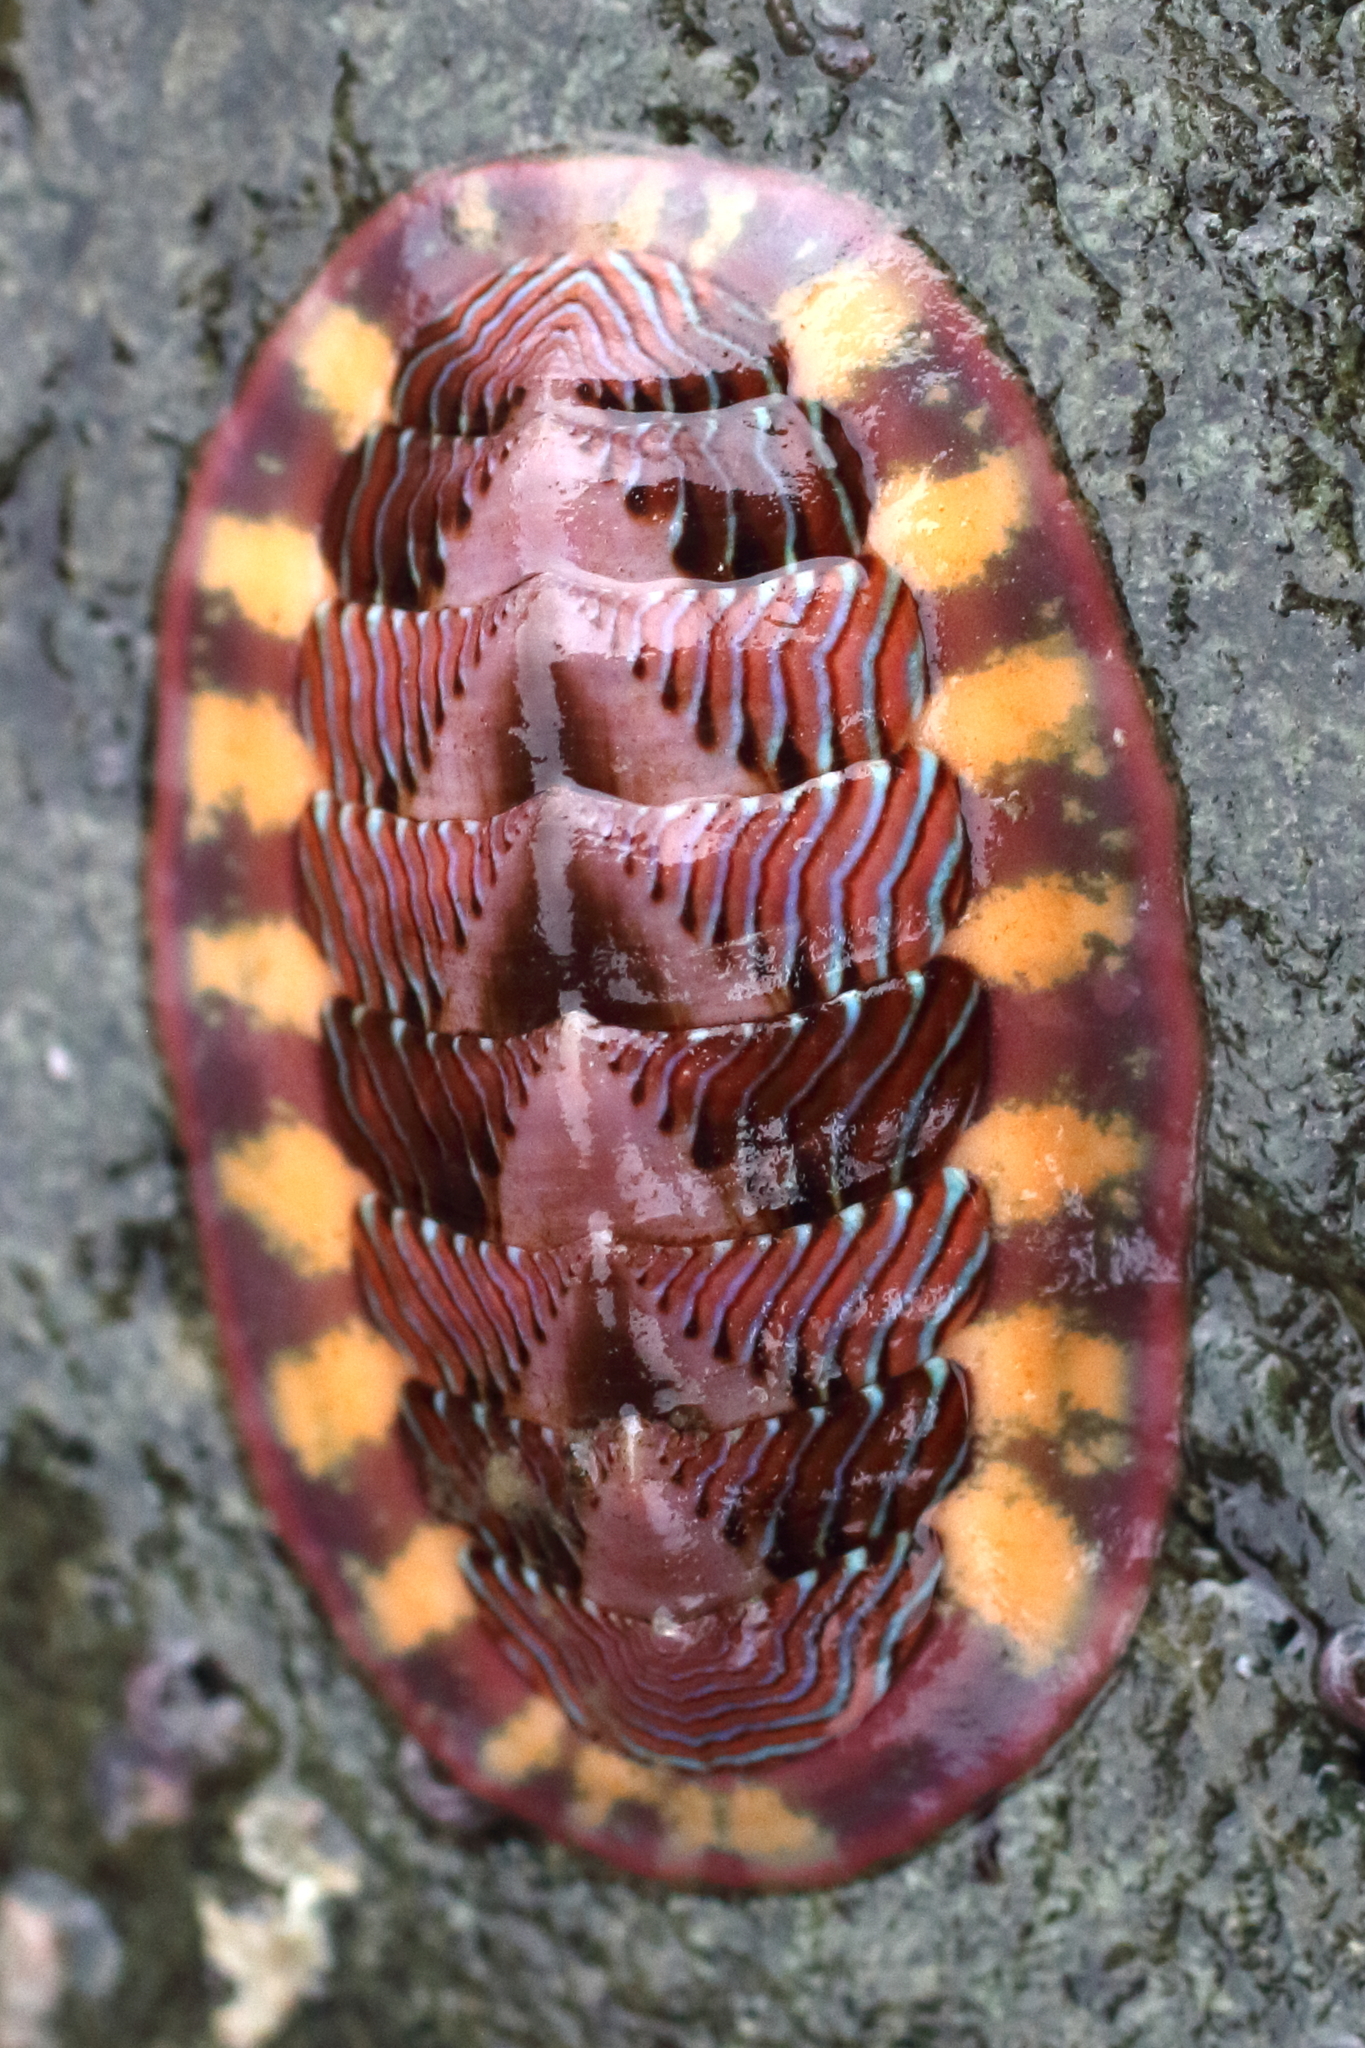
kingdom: Animalia
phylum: Mollusca
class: Polyplacophora
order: Chitonida
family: Tonicellidae
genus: Tonicella
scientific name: Tonicella lineata
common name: Lined chiton
